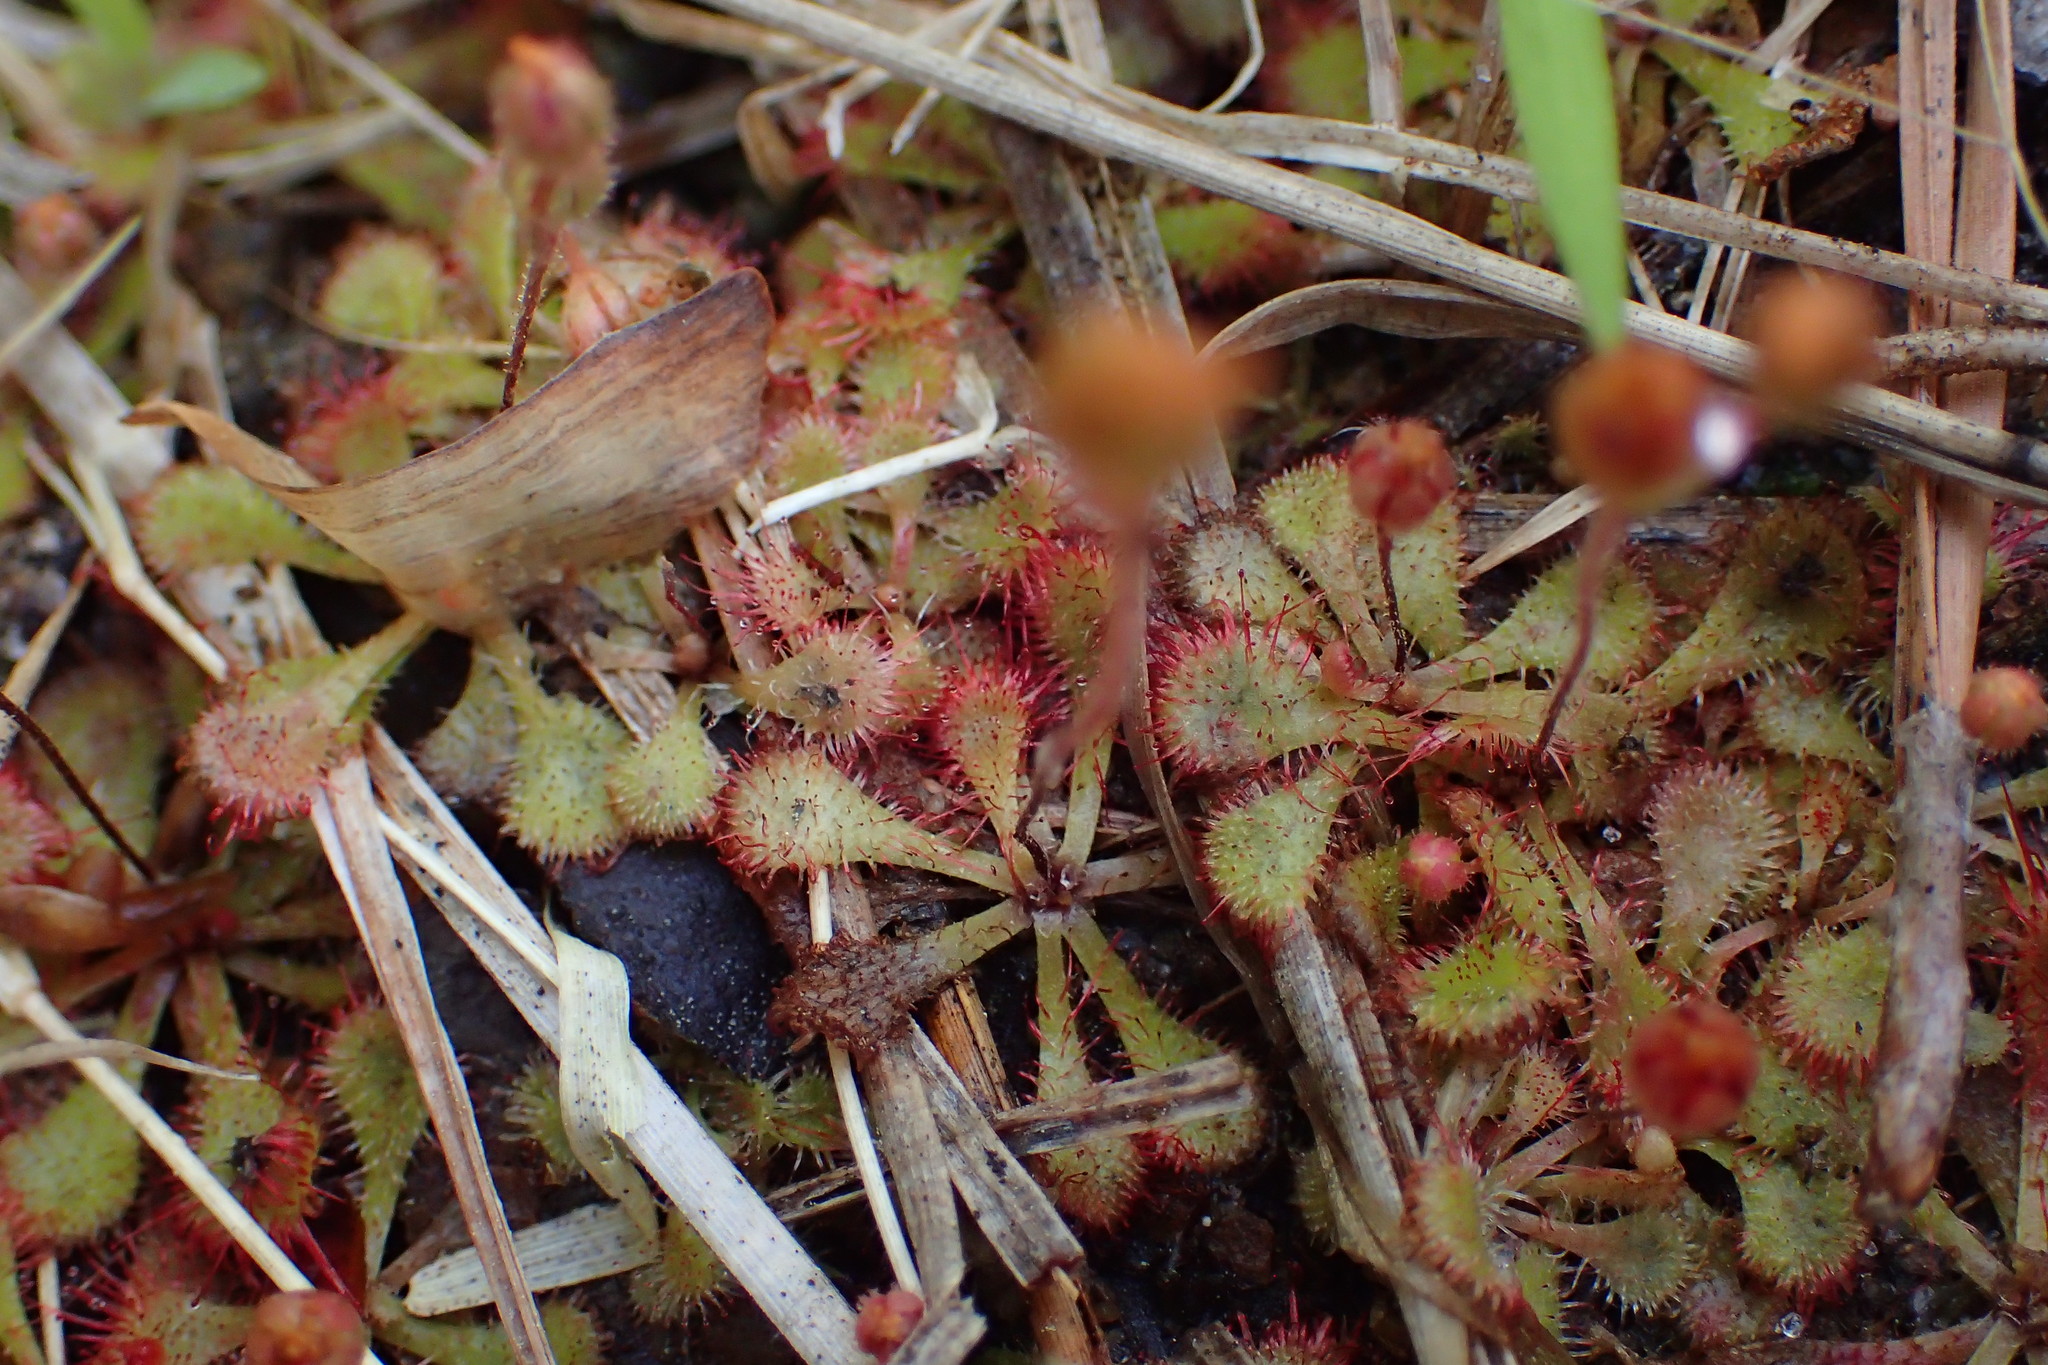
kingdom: Plantae
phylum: Tracheophyta
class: Magnoliopsida
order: Caryophyllales
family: Droseraceae
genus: Drosera
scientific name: Drosera brevifolia
